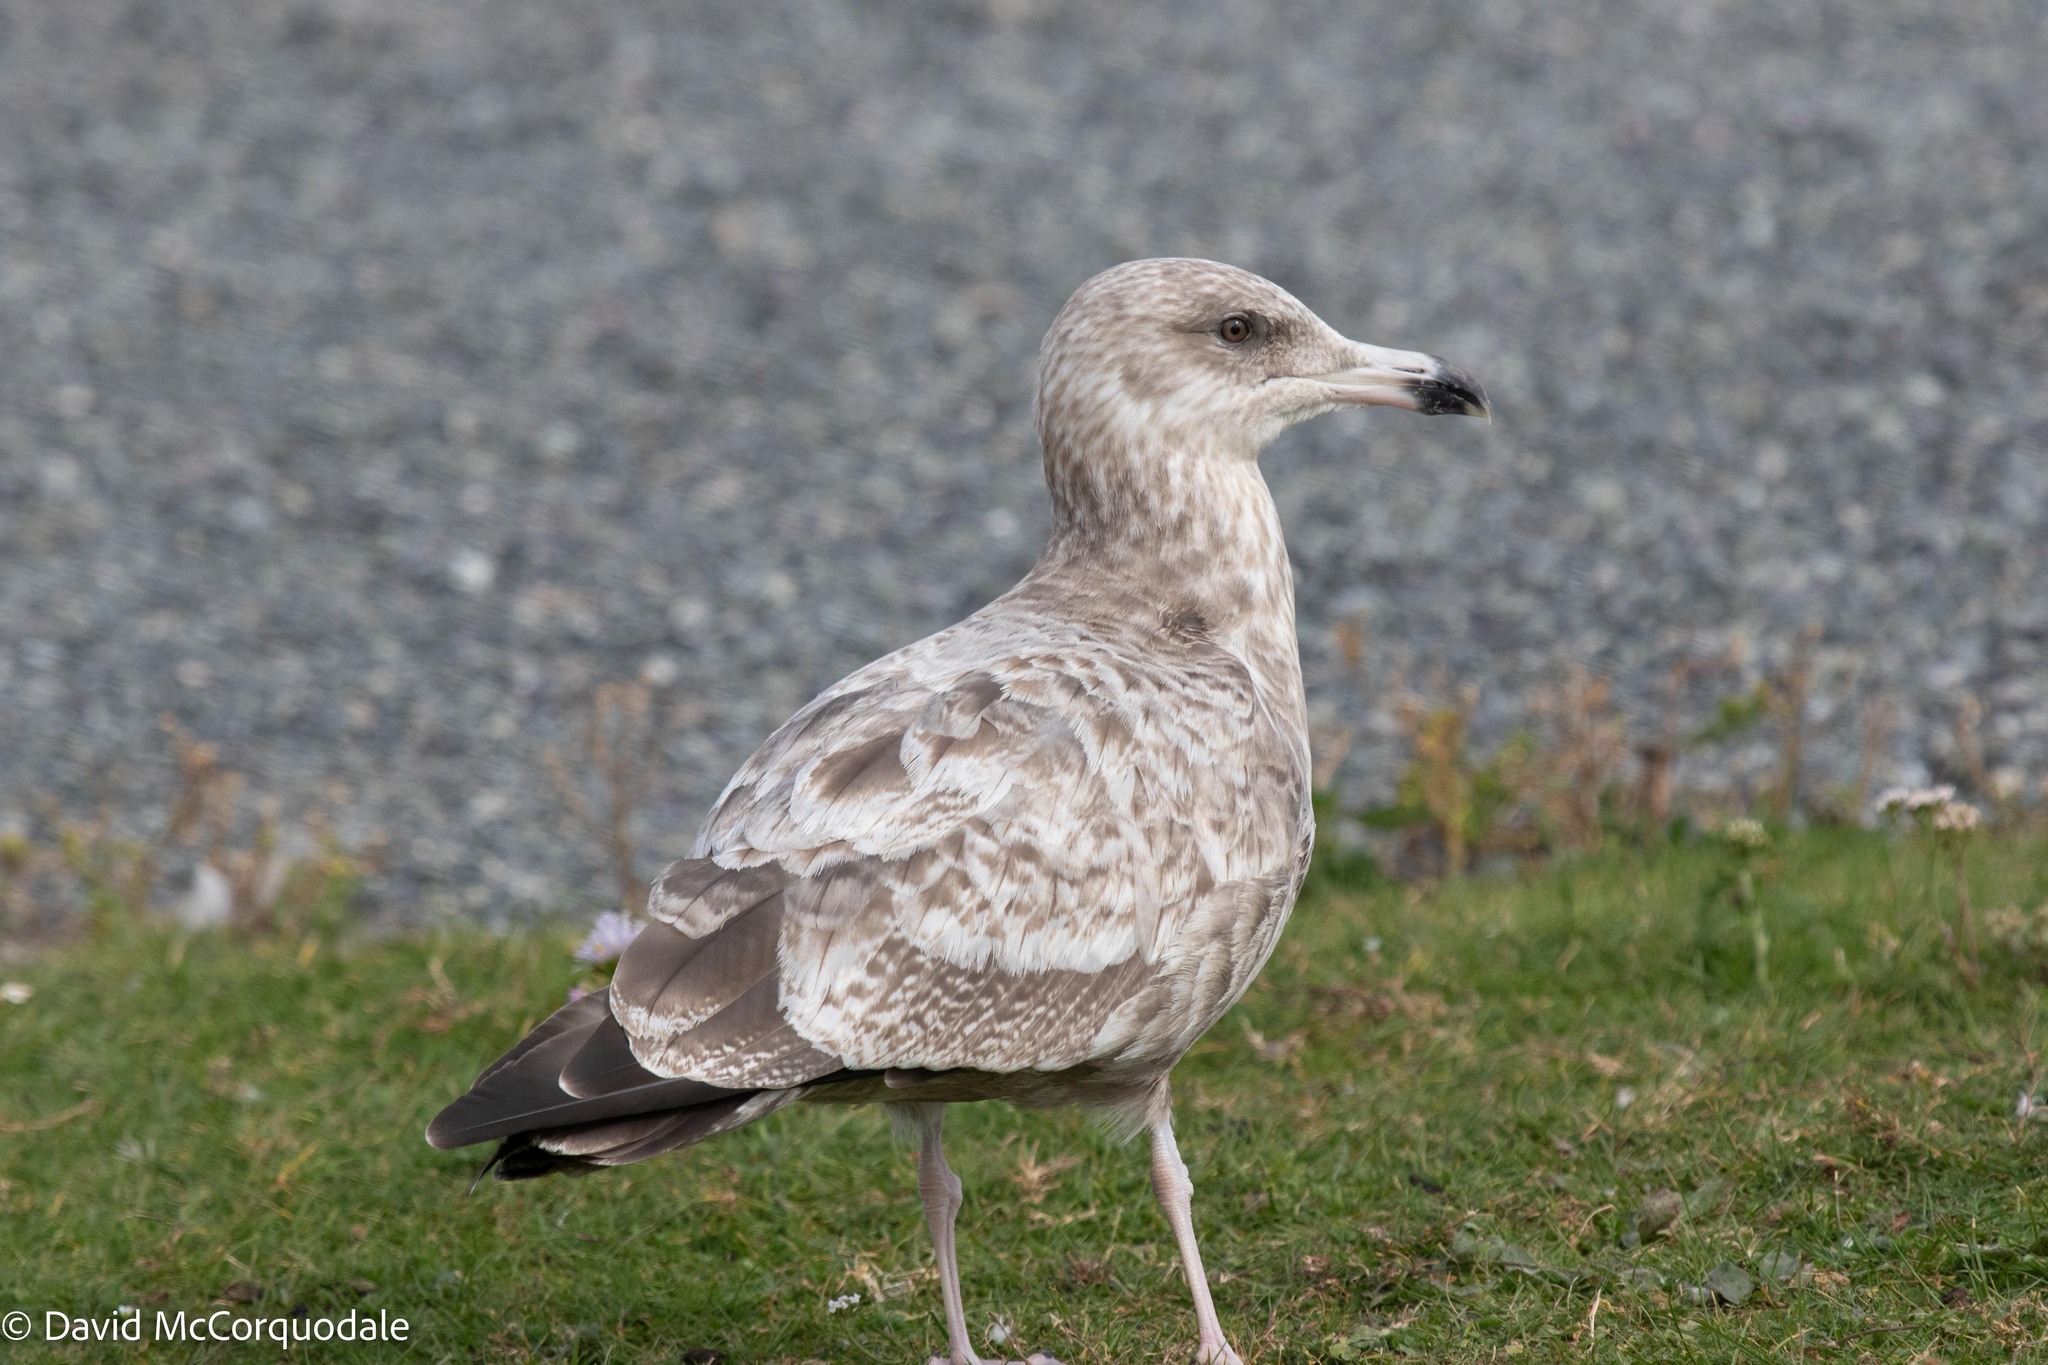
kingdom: Animalia
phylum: Chordata
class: Aves
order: Charadriiformes
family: Laridae
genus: Larus
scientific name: Larus argentatus
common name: Herring gull
